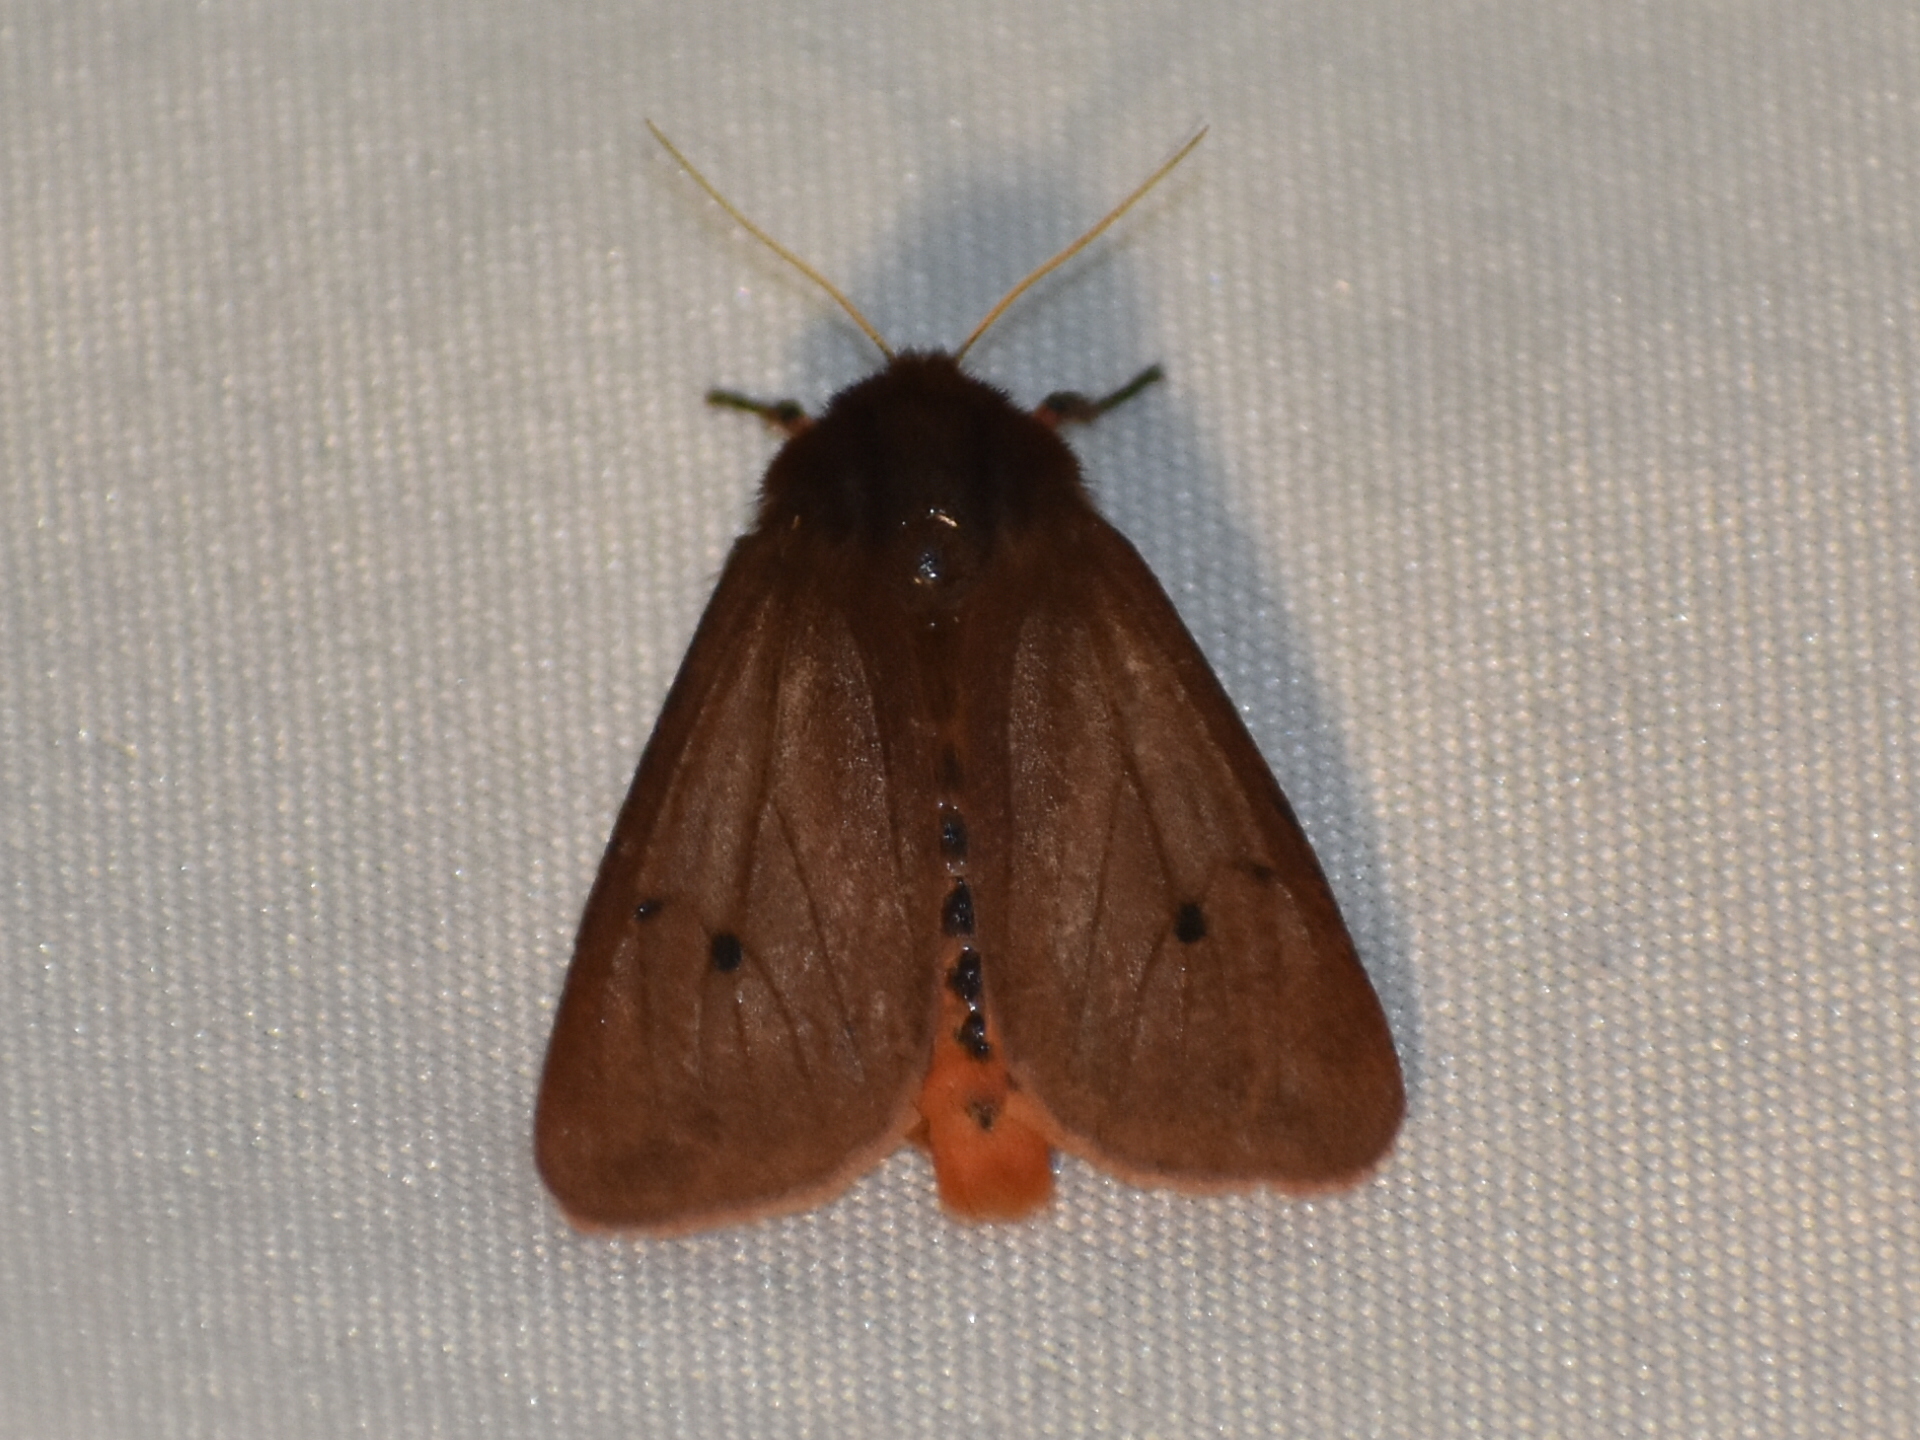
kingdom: Animalia
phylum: Arthropoda
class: Insecta
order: Lepidoptera
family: Erebidae
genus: Phragmatobia
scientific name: Phragmatobia fuliginosa
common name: Ruby tiger
